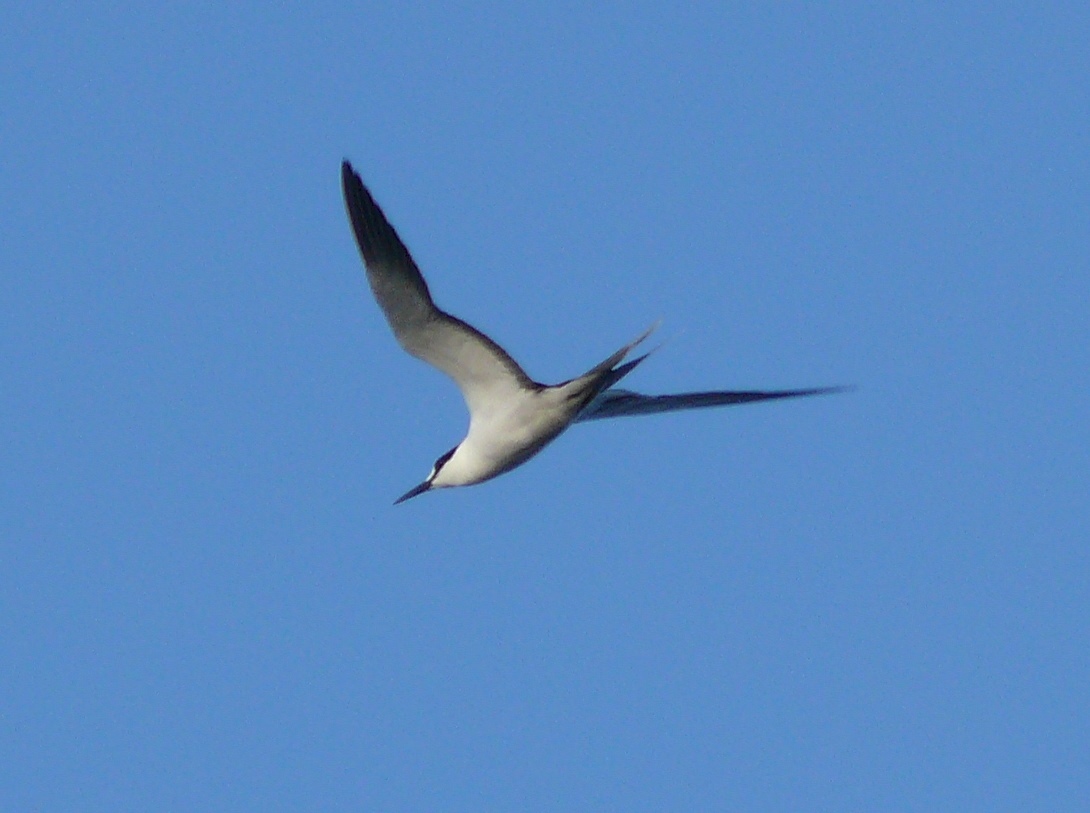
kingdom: Animalia
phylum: Chordata
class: Aves
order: Charadriiformes
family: Laridae
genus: Onychoprion
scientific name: Onychoprion fuscatus
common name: Sooty tern
